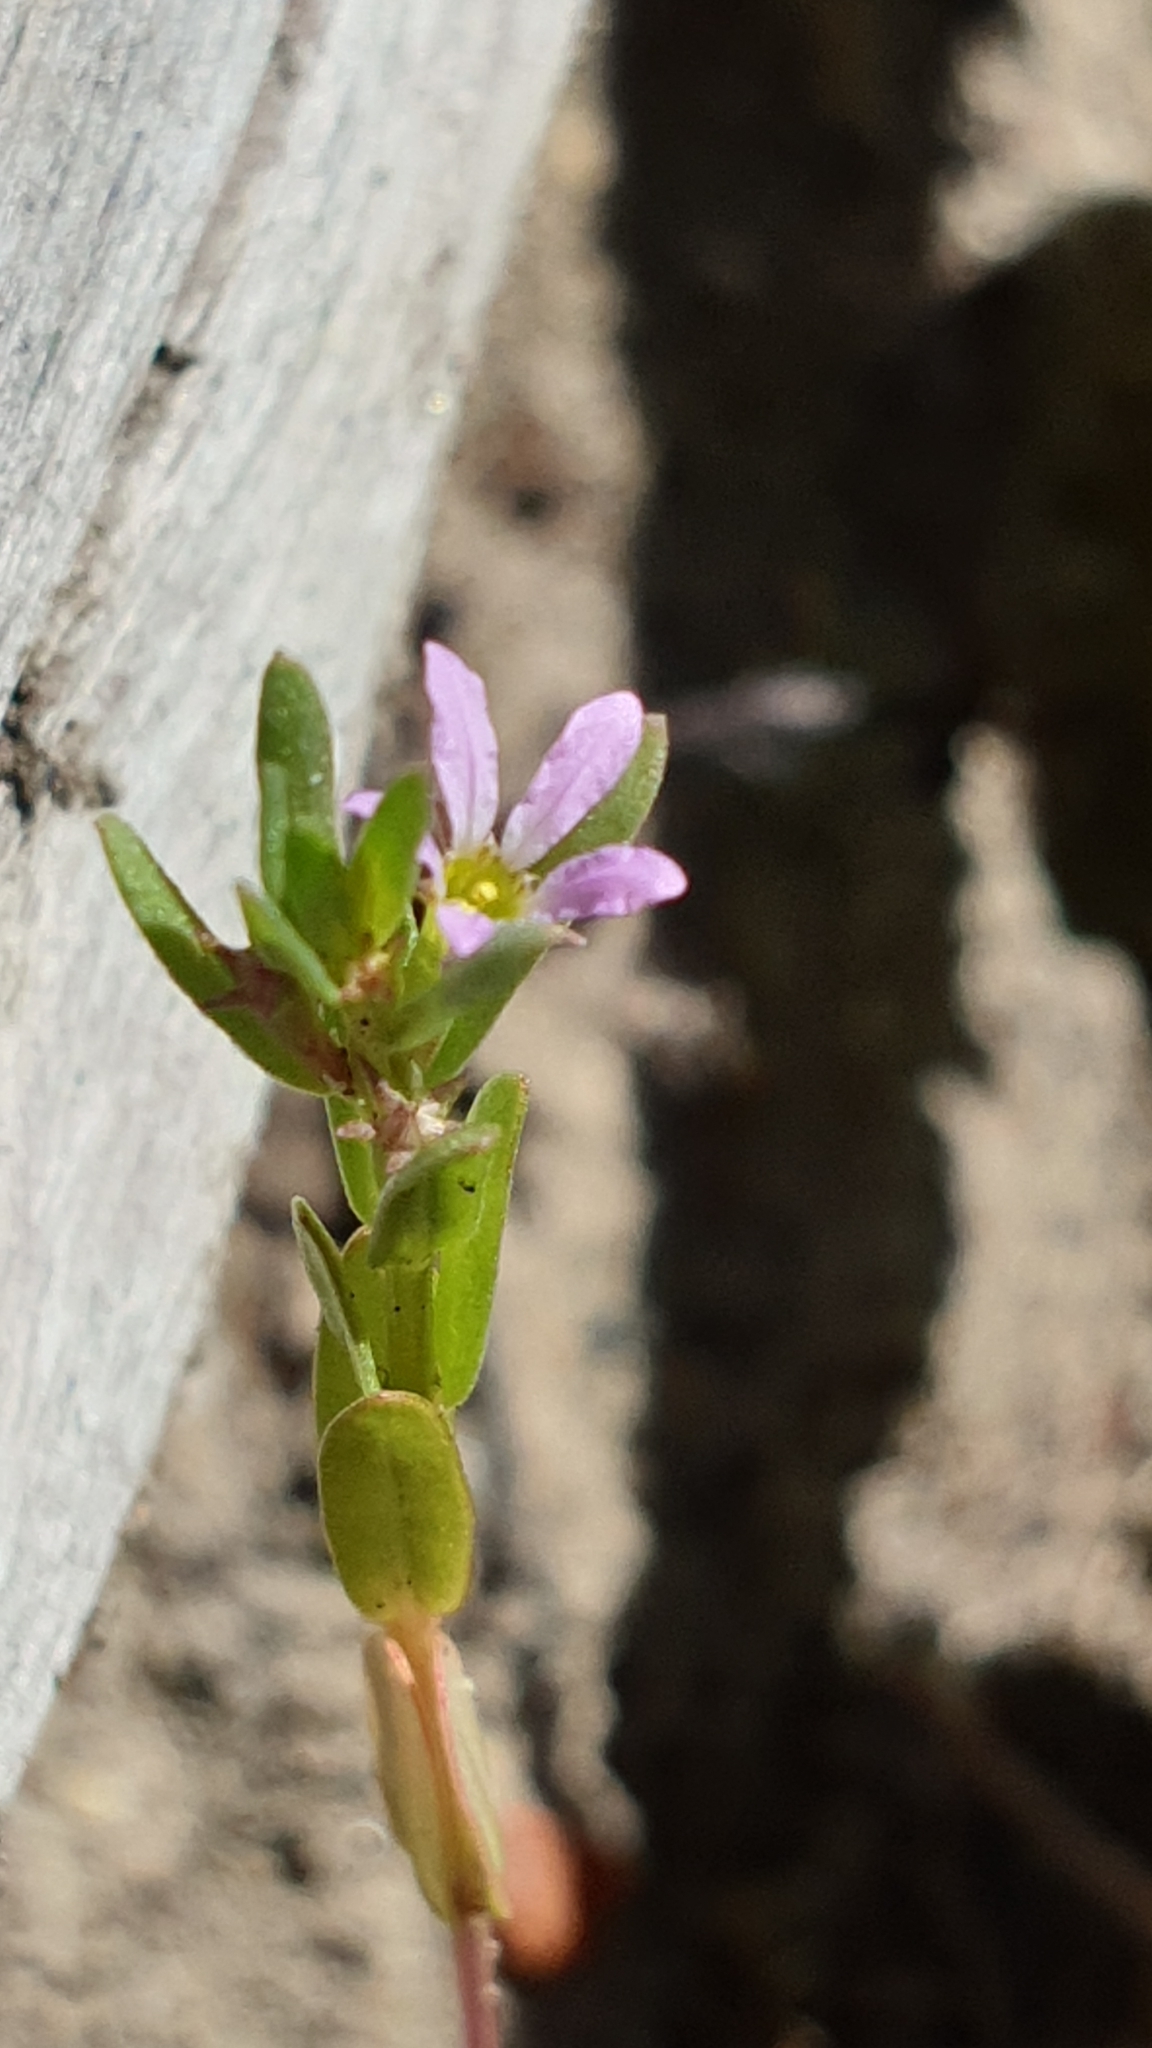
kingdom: Plantae
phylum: Tracheophyta
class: Magnoliopsida
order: Myrtales
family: Lythraceae
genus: Lythrum
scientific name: Lythrum hyssopifolia
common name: Grass-poly
